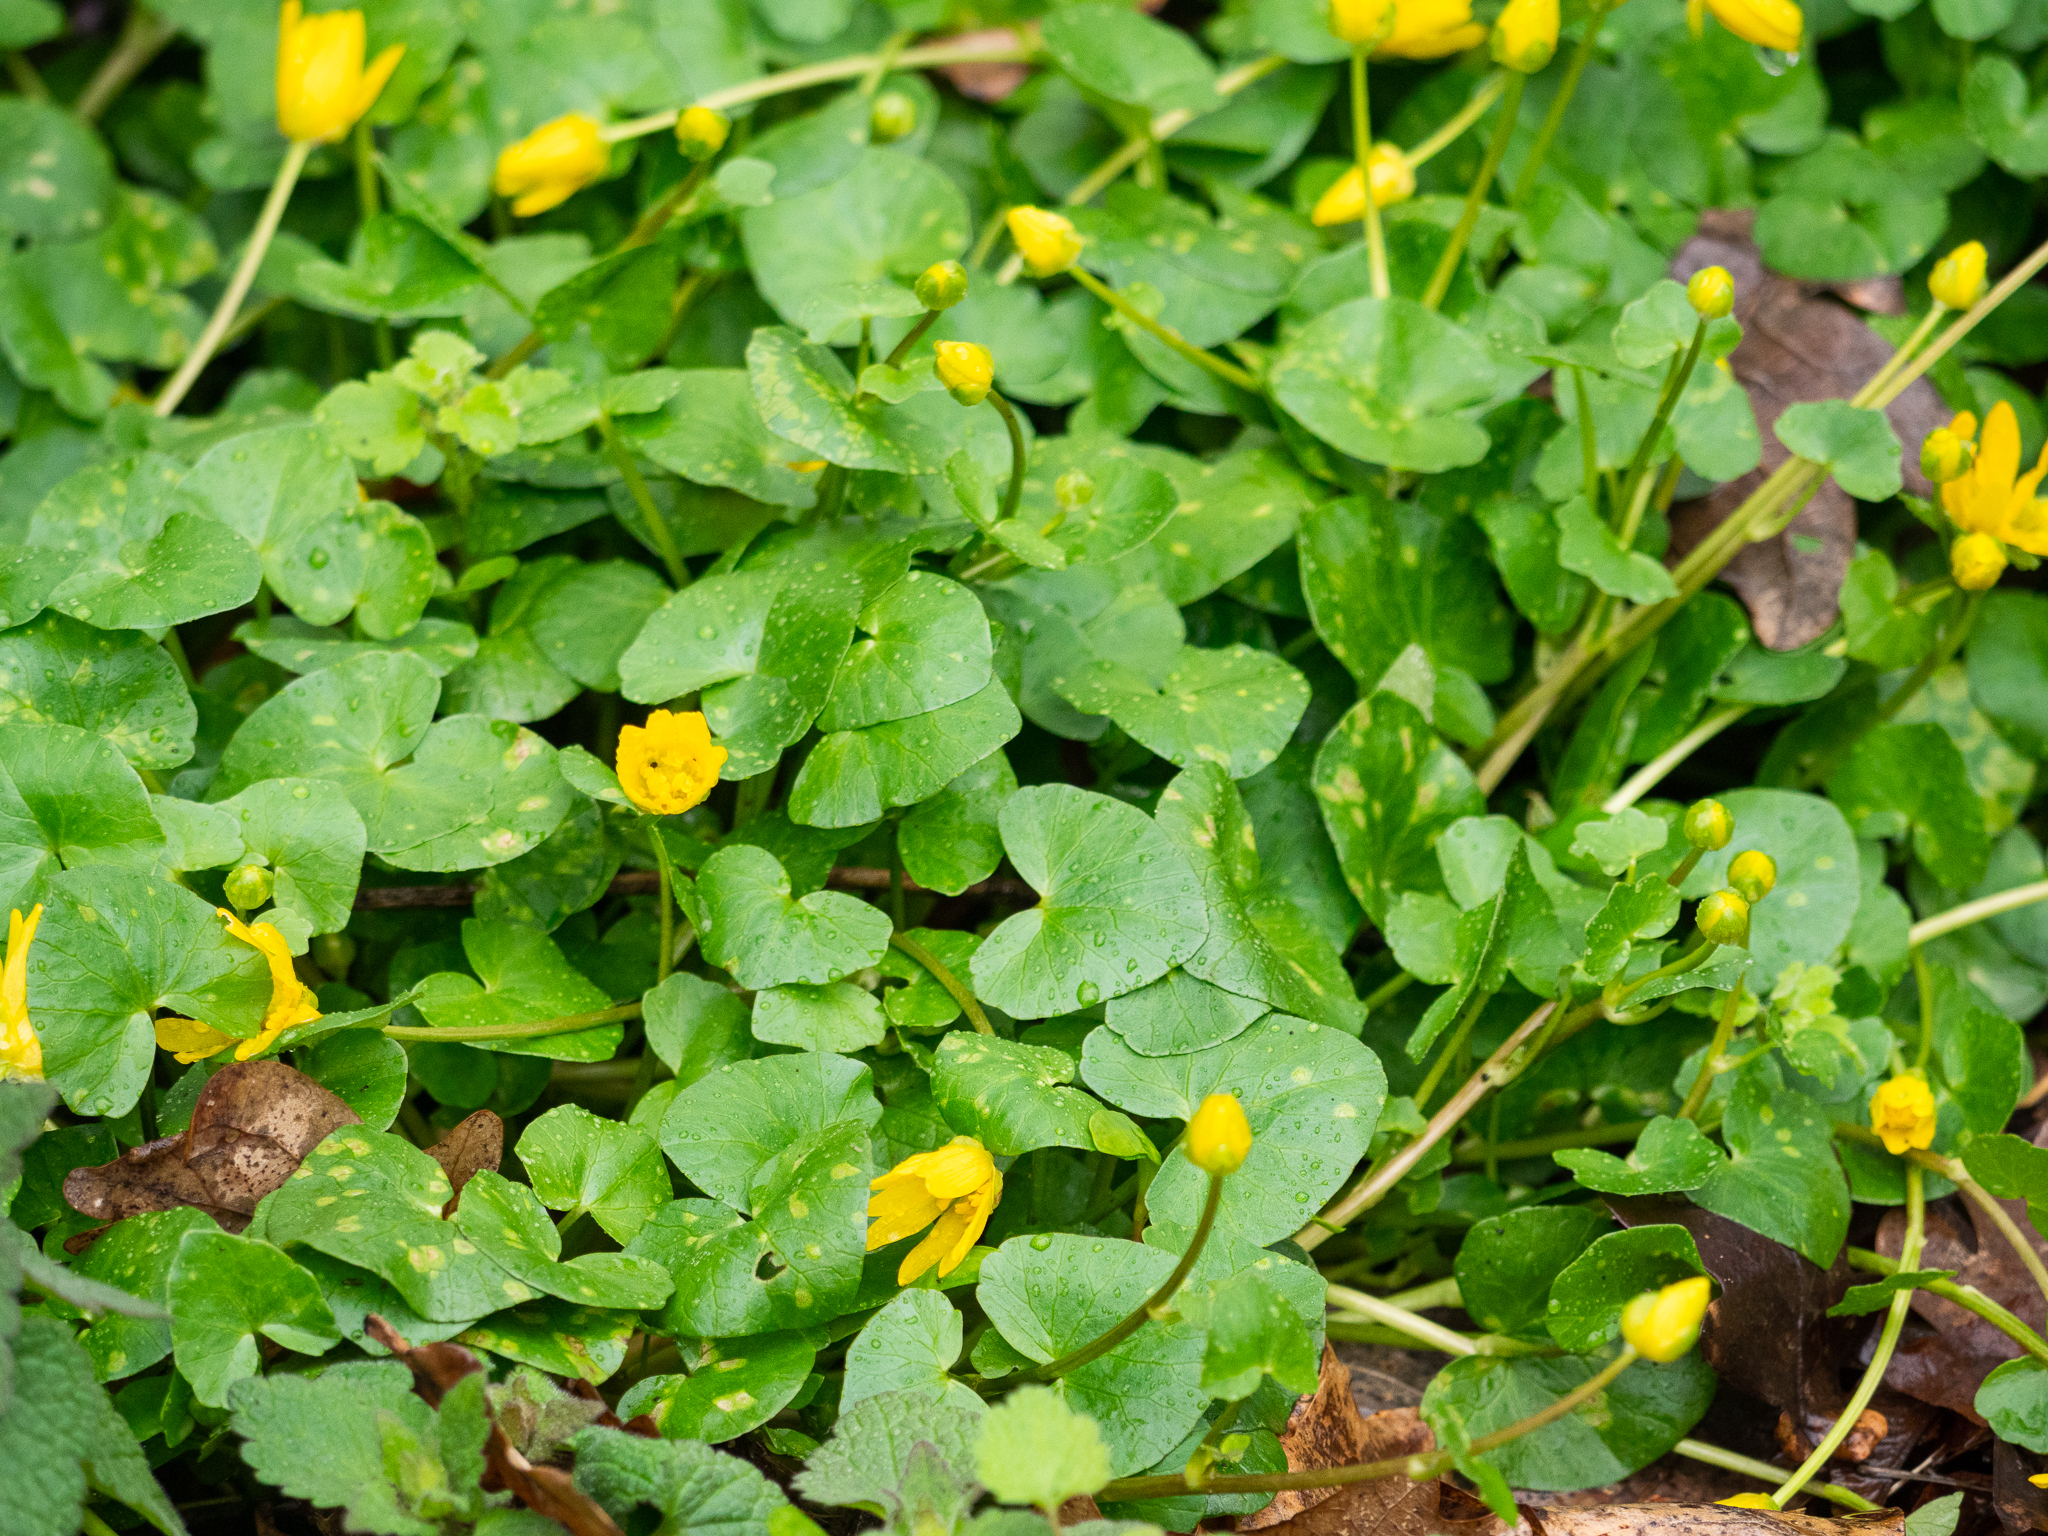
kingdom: Plantae
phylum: Tracheophyta
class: Magnoliopsida
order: Ranunculales
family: Ranunculaceae
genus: Ficaria
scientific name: Ficaria verna
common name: Lesser celandine
